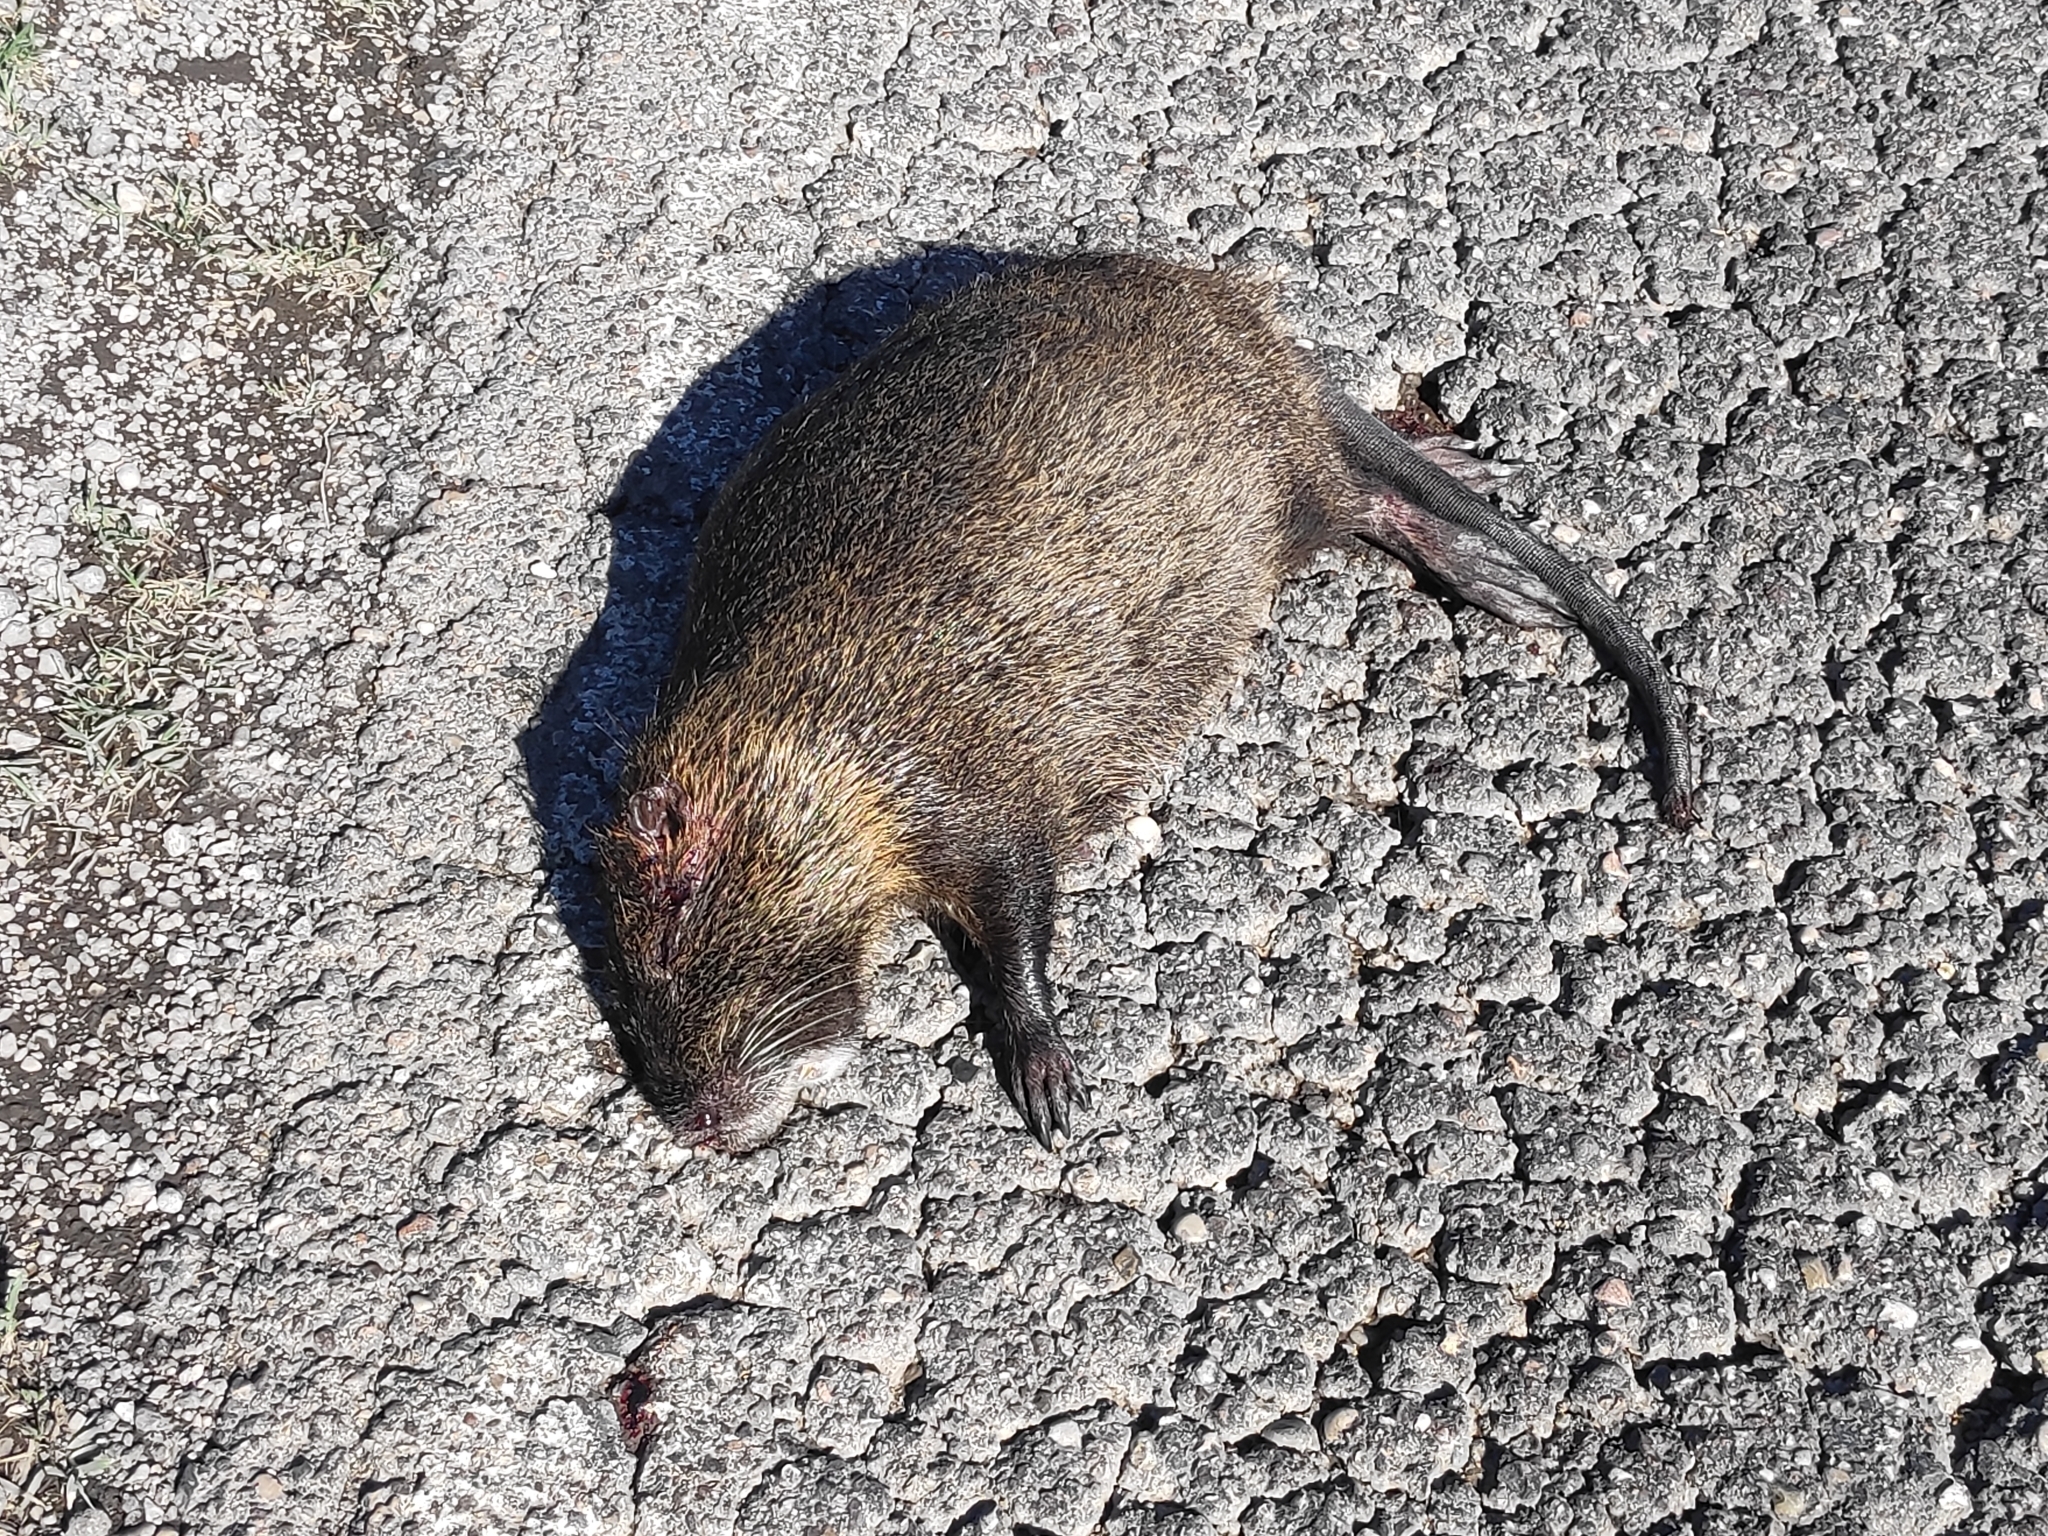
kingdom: Animalia
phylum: Chordata
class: Mammalia
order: Rodentia
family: Myocastoridae
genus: Myocastor
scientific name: Myocastor coypus
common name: Coypu
